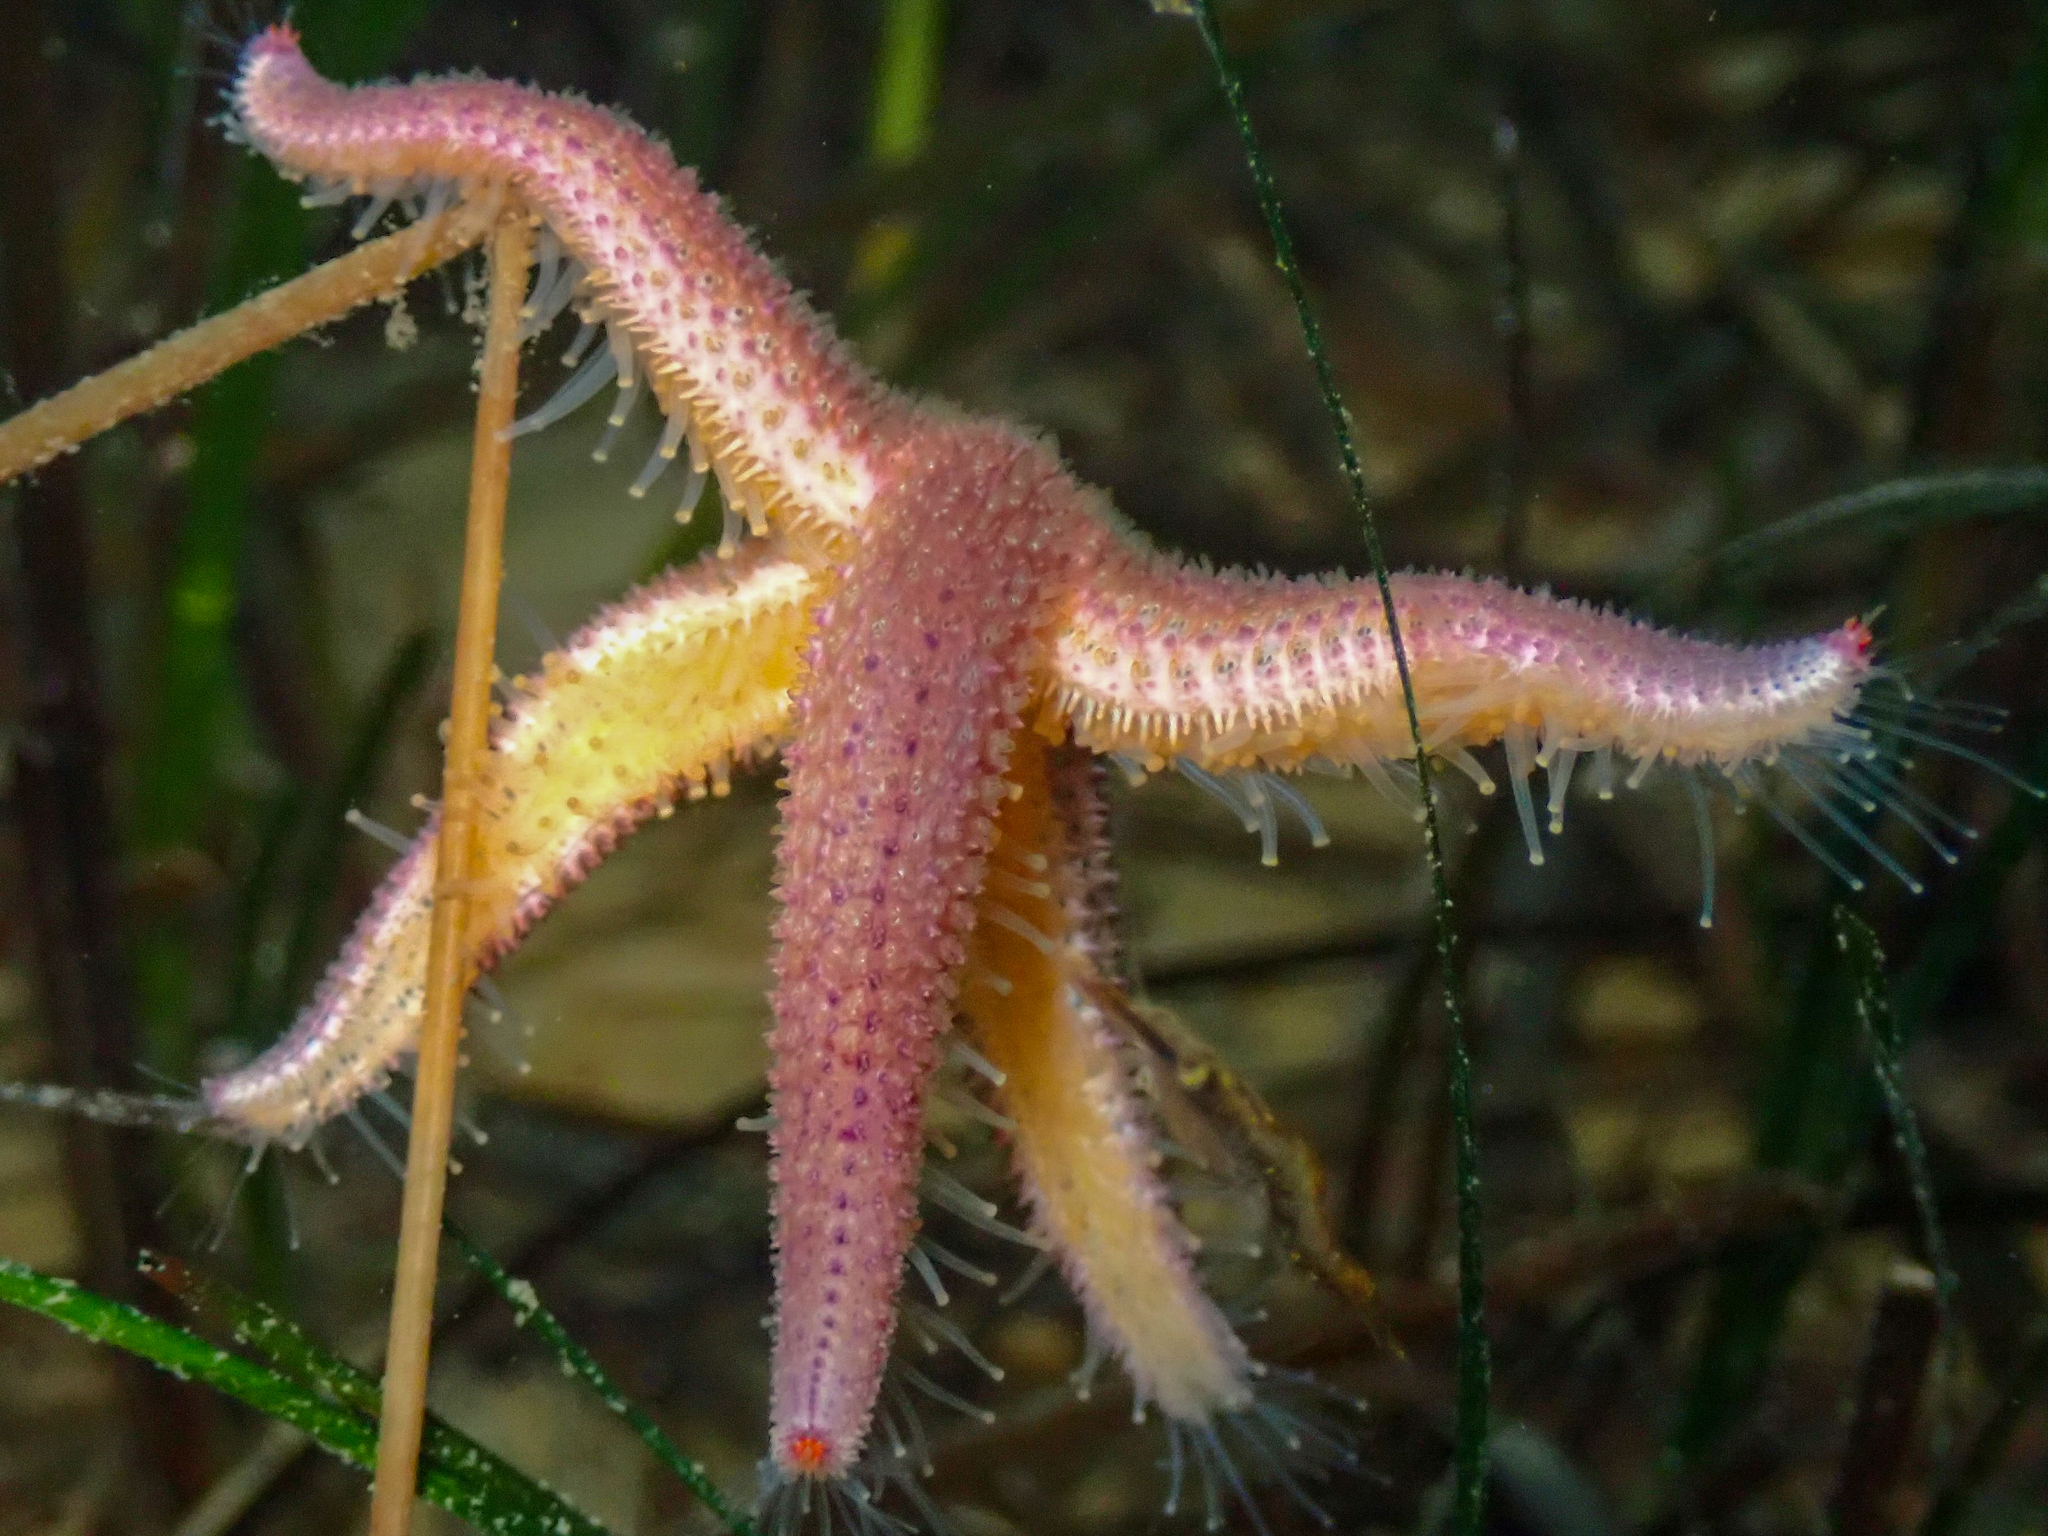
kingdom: Animalia
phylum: Echinodermata
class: Asteroidea
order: Forcipulatida
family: Asteriidae
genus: Asterias
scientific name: Asterias rubens
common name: Common starfish
